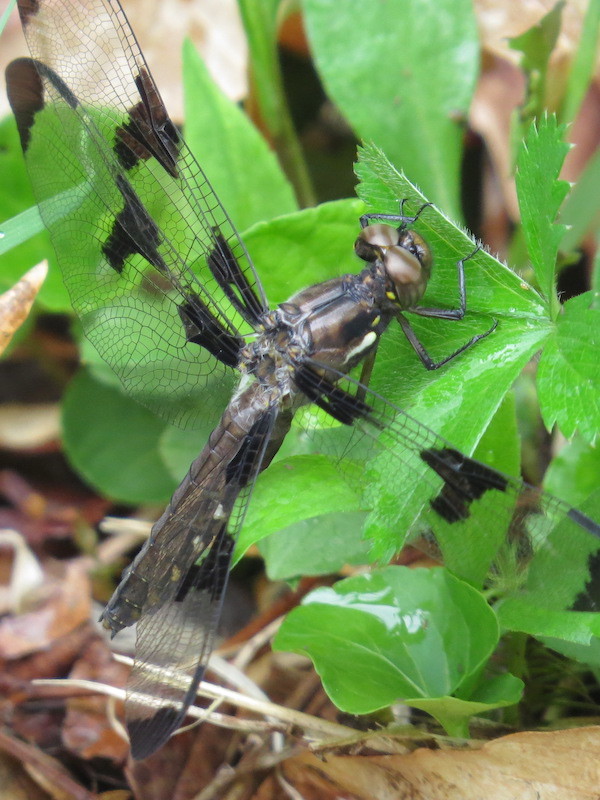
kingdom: Animalia
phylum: Arthropoda
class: Insecta
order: Odonata
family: Libellulidae
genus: Plathemis
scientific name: Plathemis lydia
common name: Common whitetail
